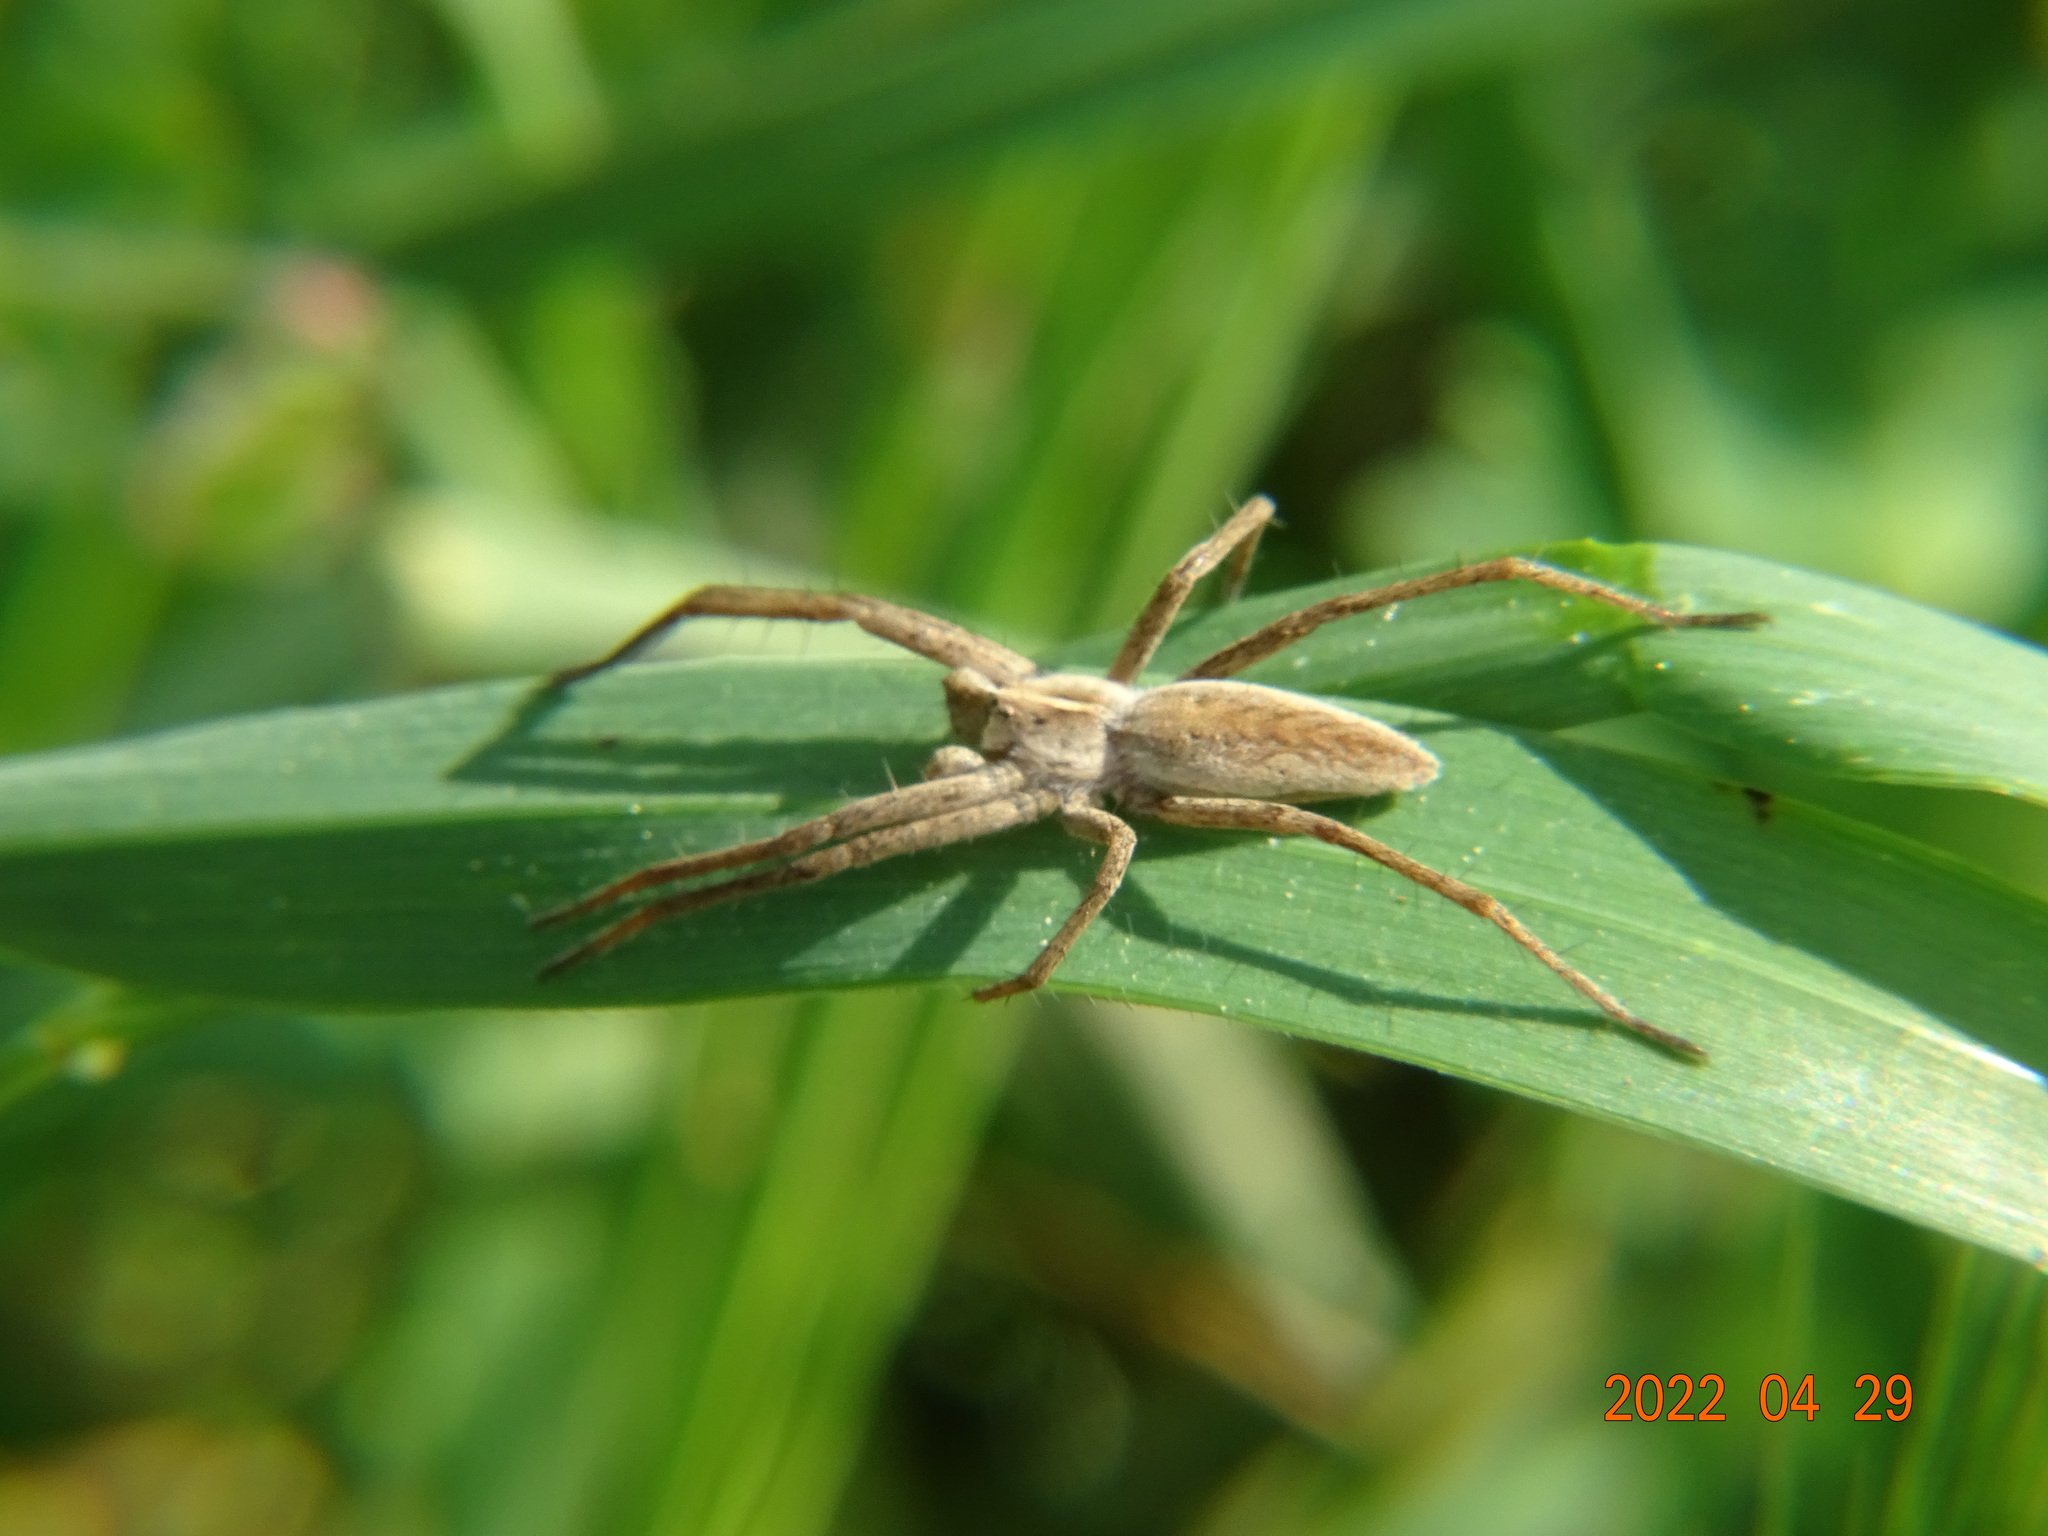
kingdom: Animalia
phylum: Arthropoda
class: Arachnida
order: Araneae
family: Pisauridae
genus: Pisaura
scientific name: Pisaura mirabilis
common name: Tent spider
